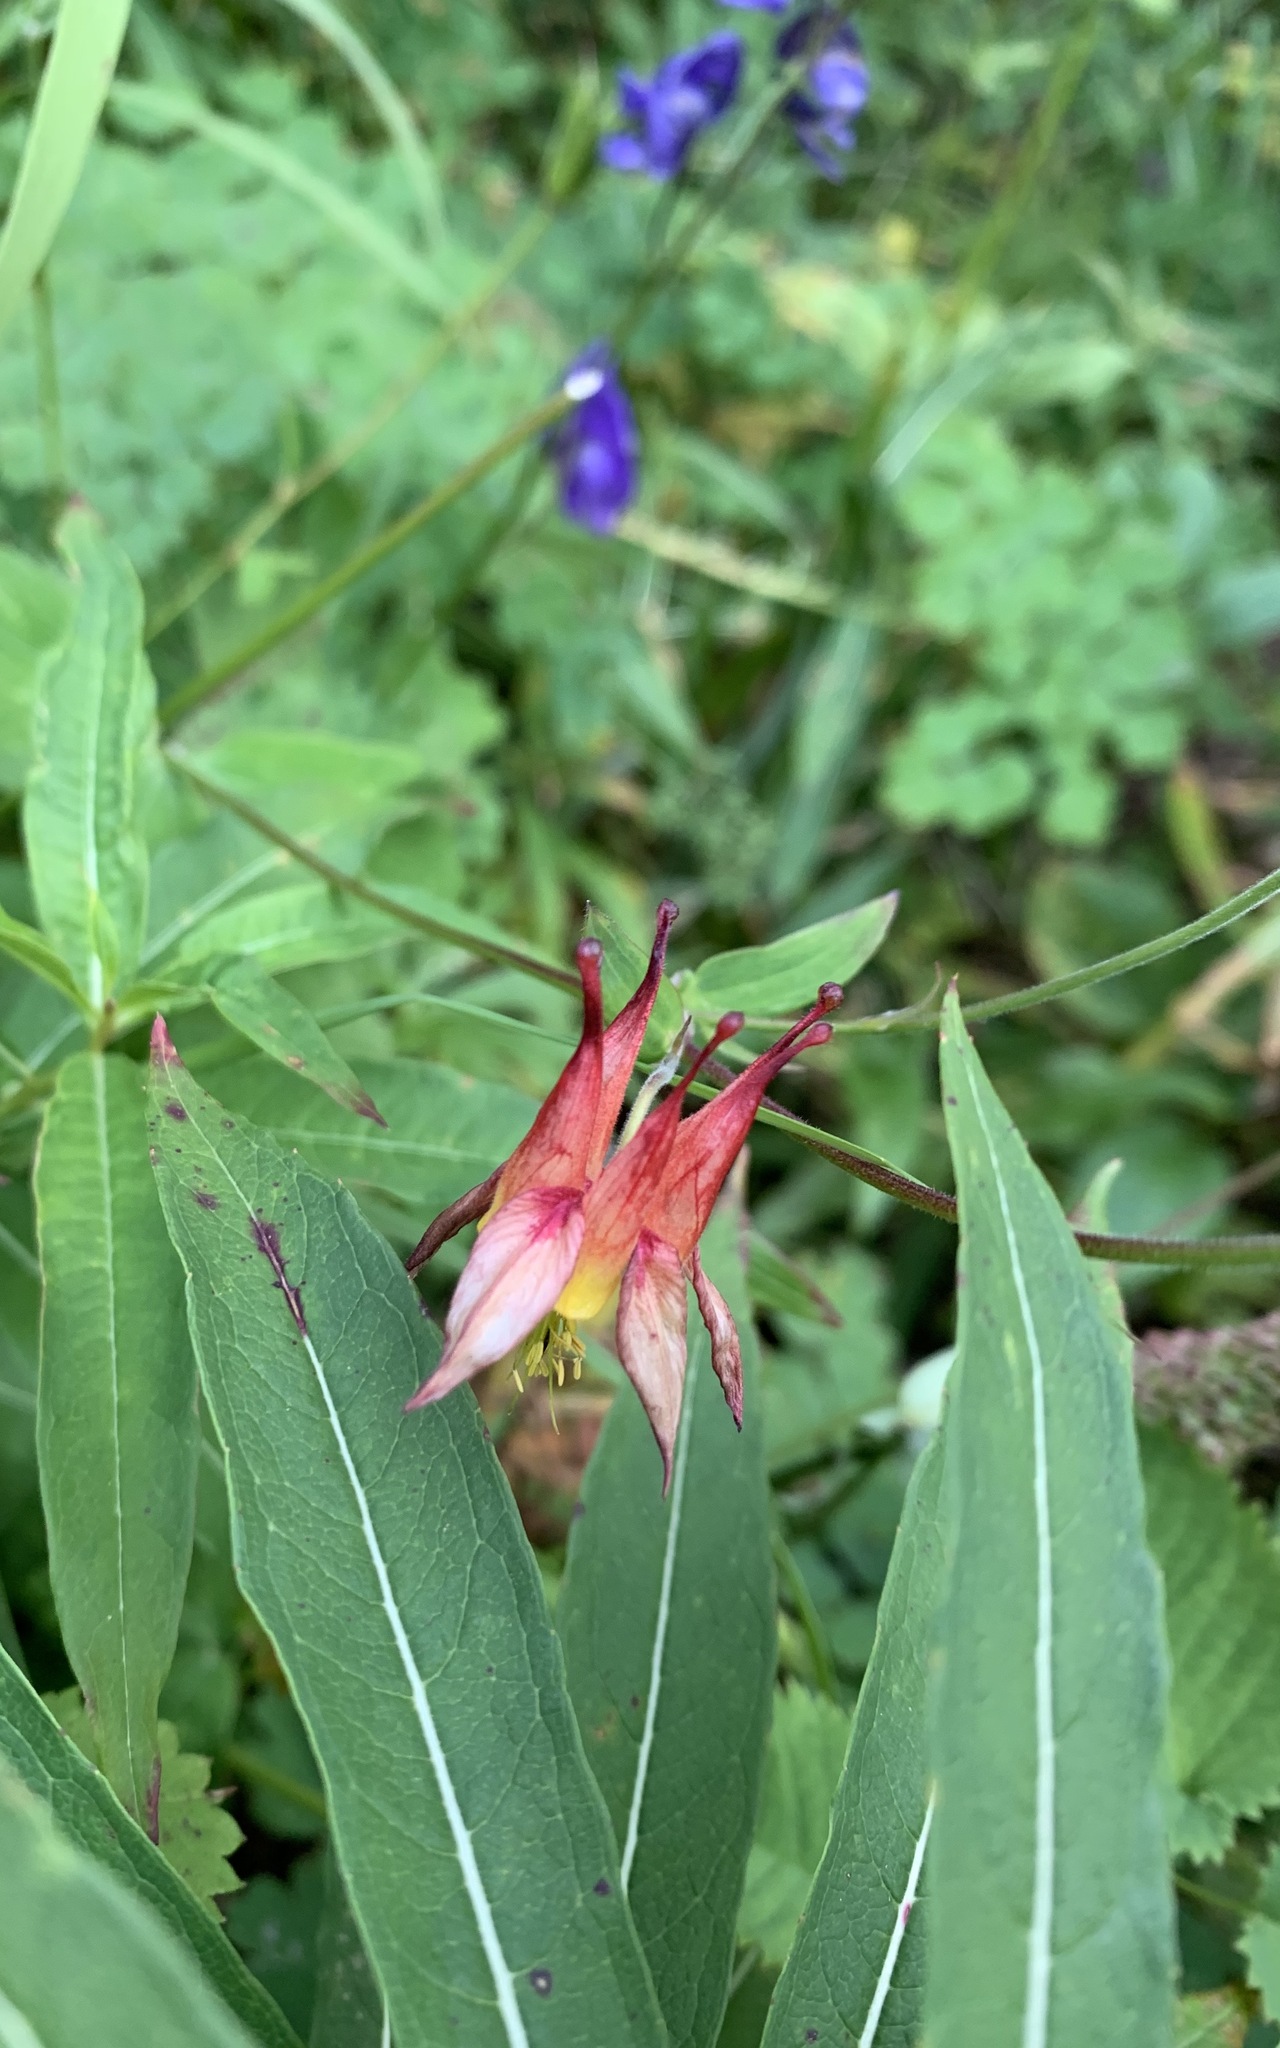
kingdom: Plantae
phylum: Tracheophyta
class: Magnoliopsida
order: Ranunculales
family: Ranunculaceae
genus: Aquilegia
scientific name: Aquilegia formosa
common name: Sitka columbine
